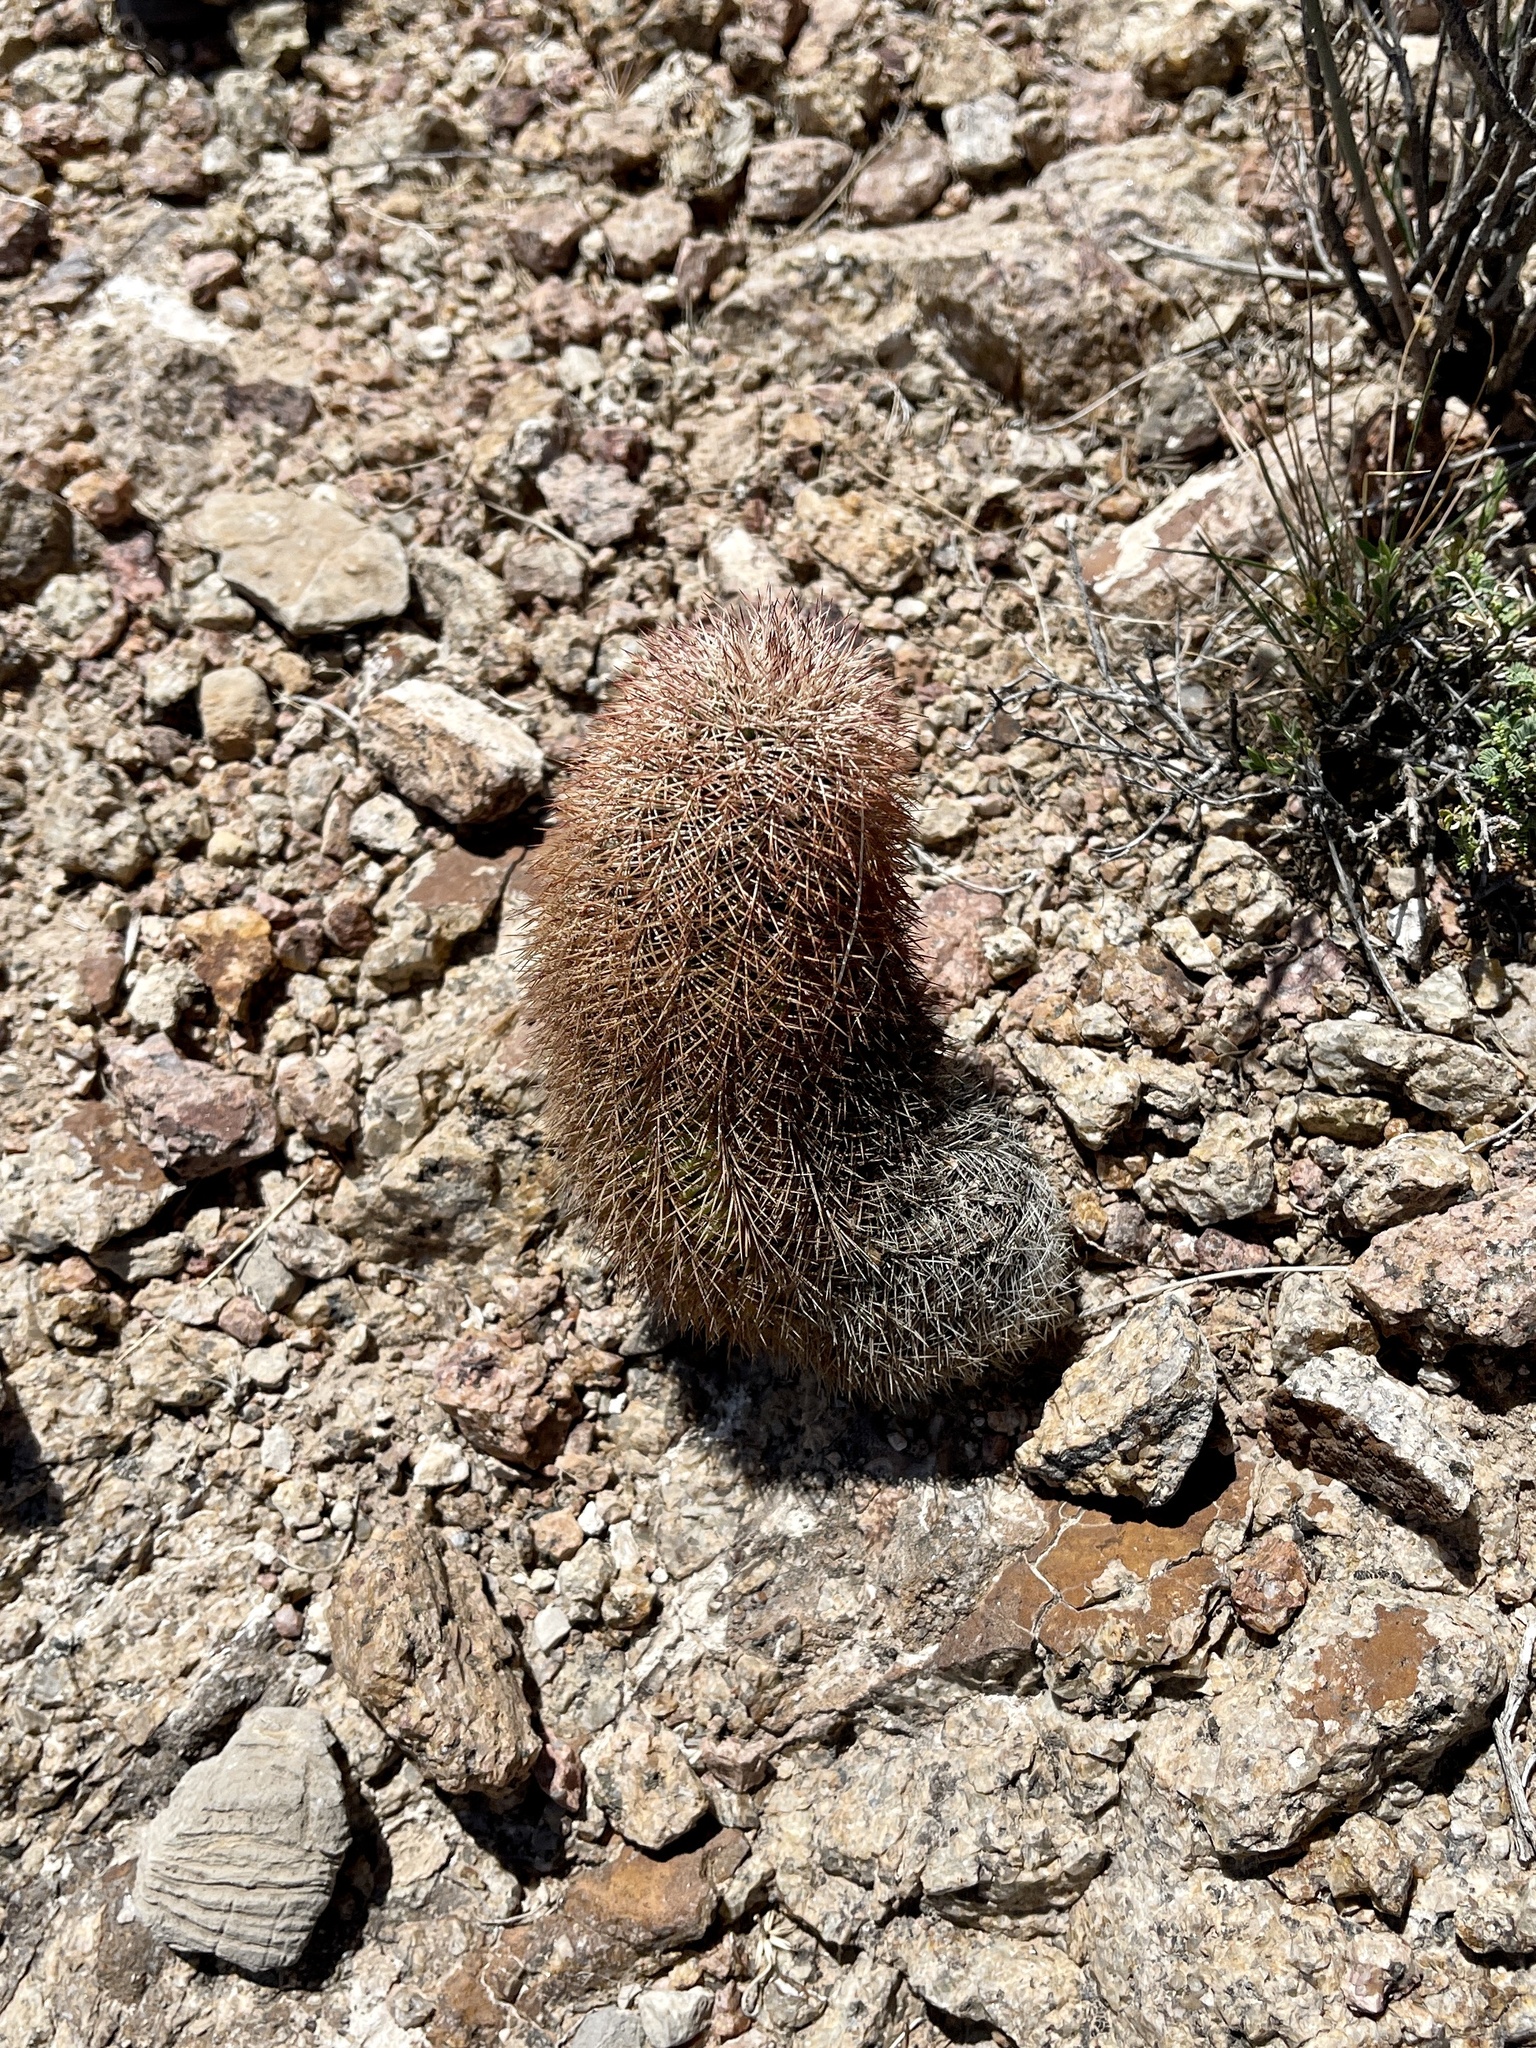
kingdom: Plantae
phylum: Tracheophyta
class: Magnoliopsida
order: Caryophyllales
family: Cactaceae
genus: Echinocereus
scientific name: Echinocereus dasyacanthus
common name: Spiny hedgehog cactus
